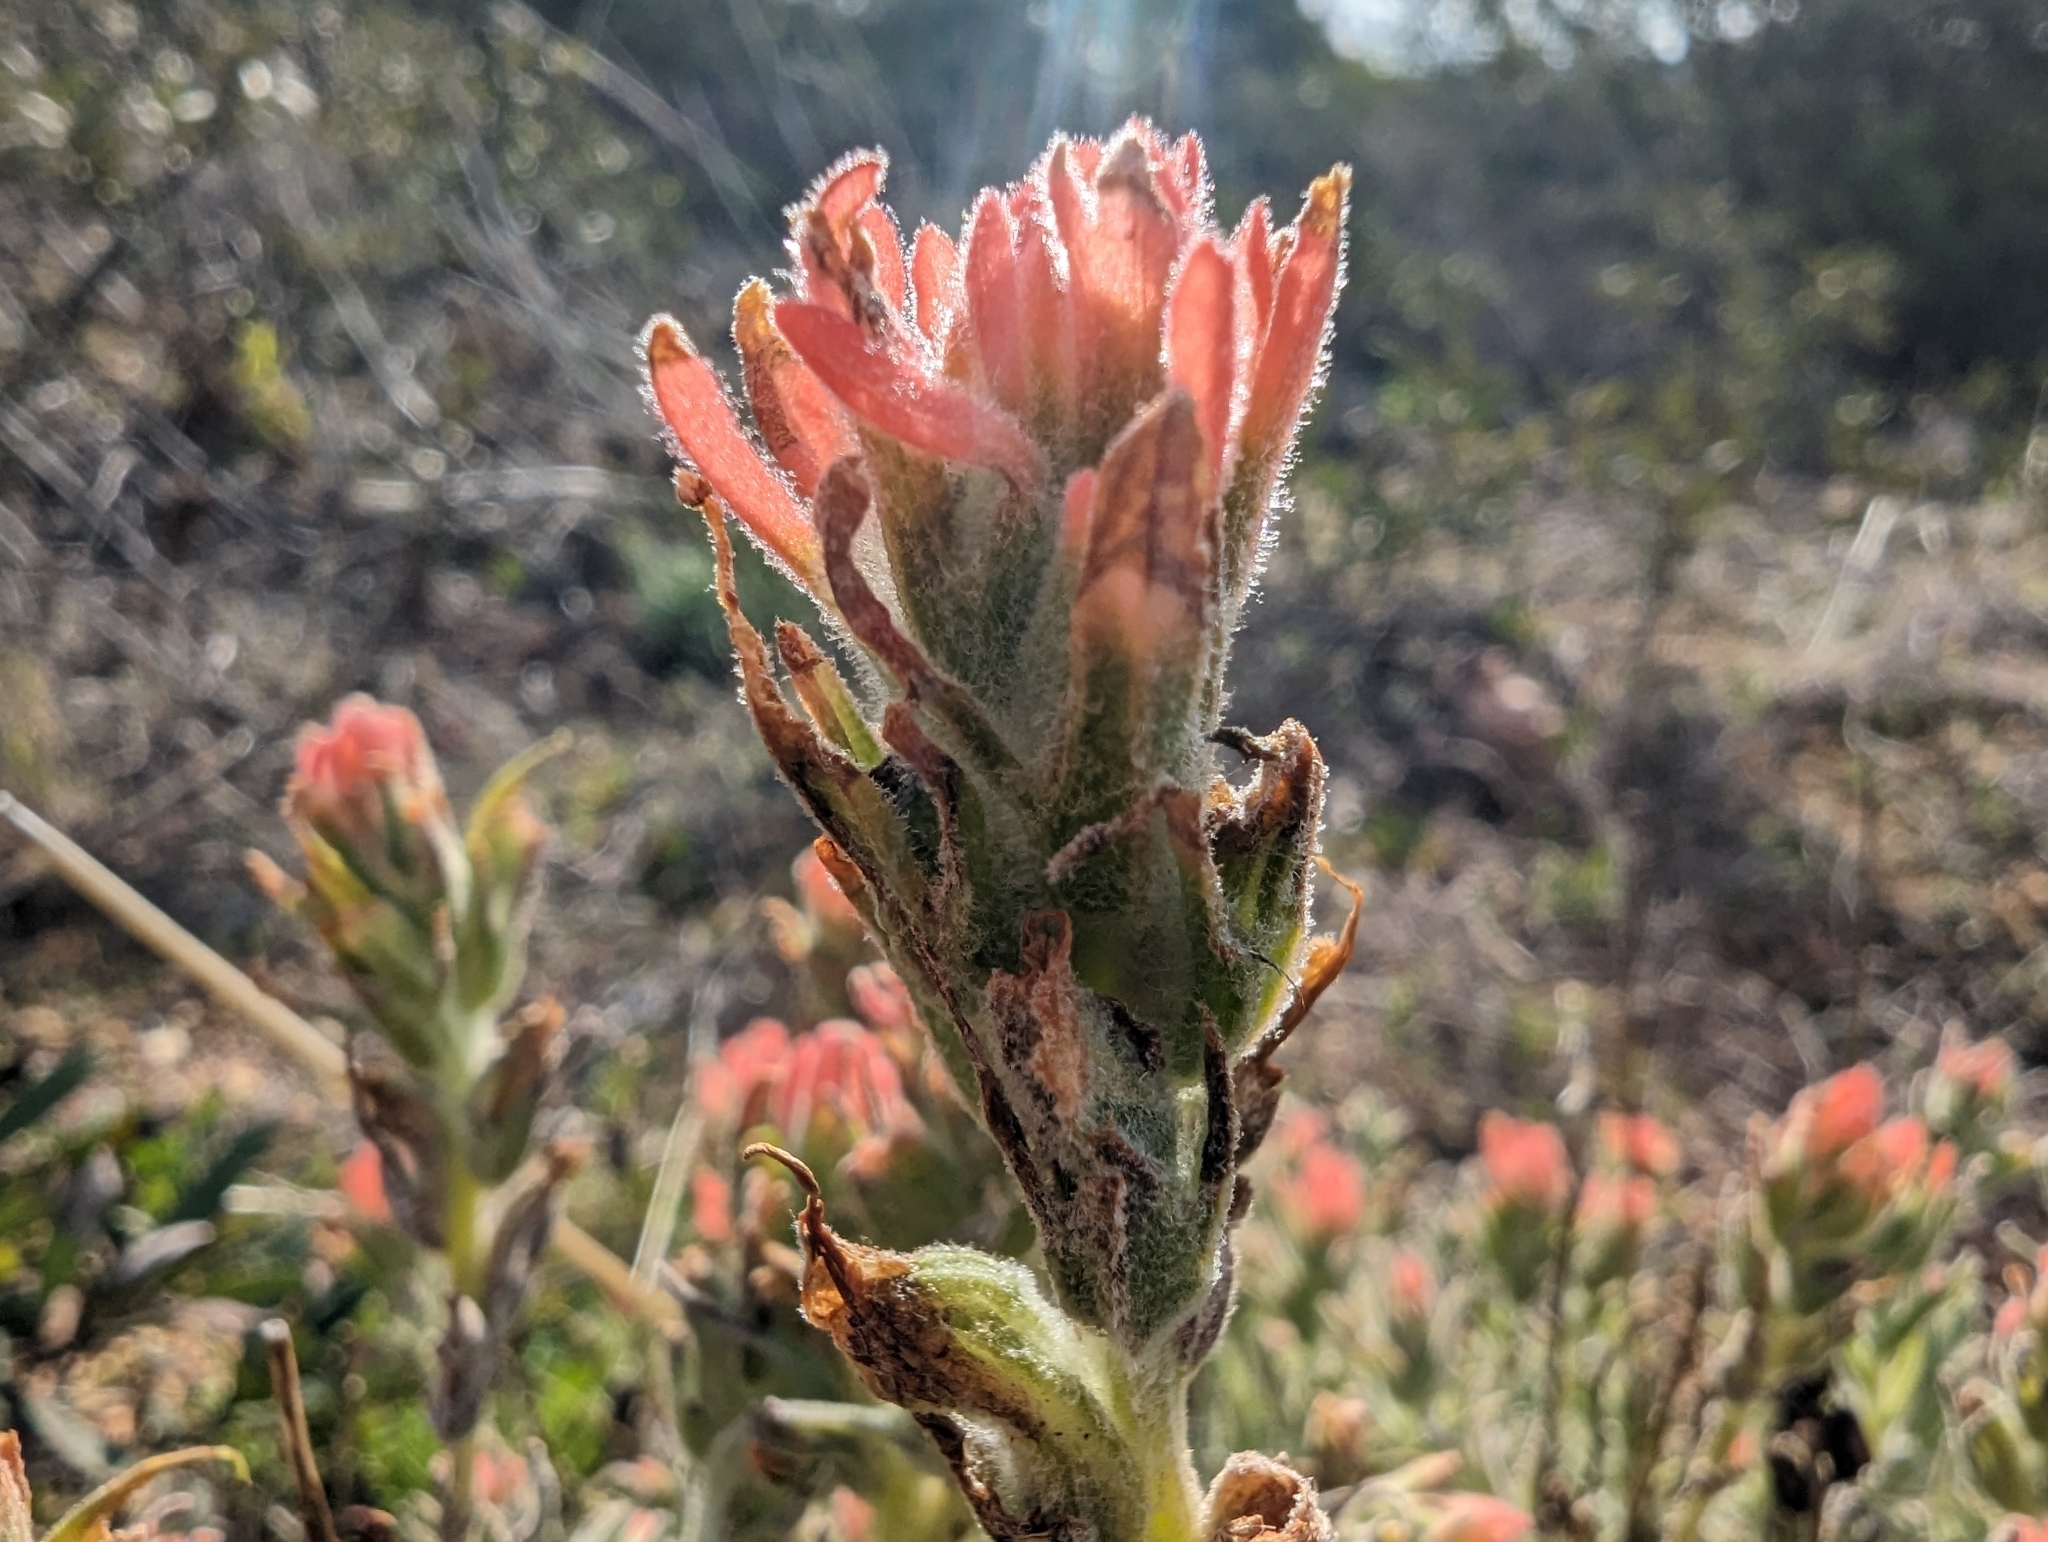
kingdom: Plantae
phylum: Tracheophyta
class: Magnoliopsida
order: Lamiales
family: Orobanchaceae
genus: Castilleja
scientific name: Castilleja foliolosa
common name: Woolly indian paintbrush
